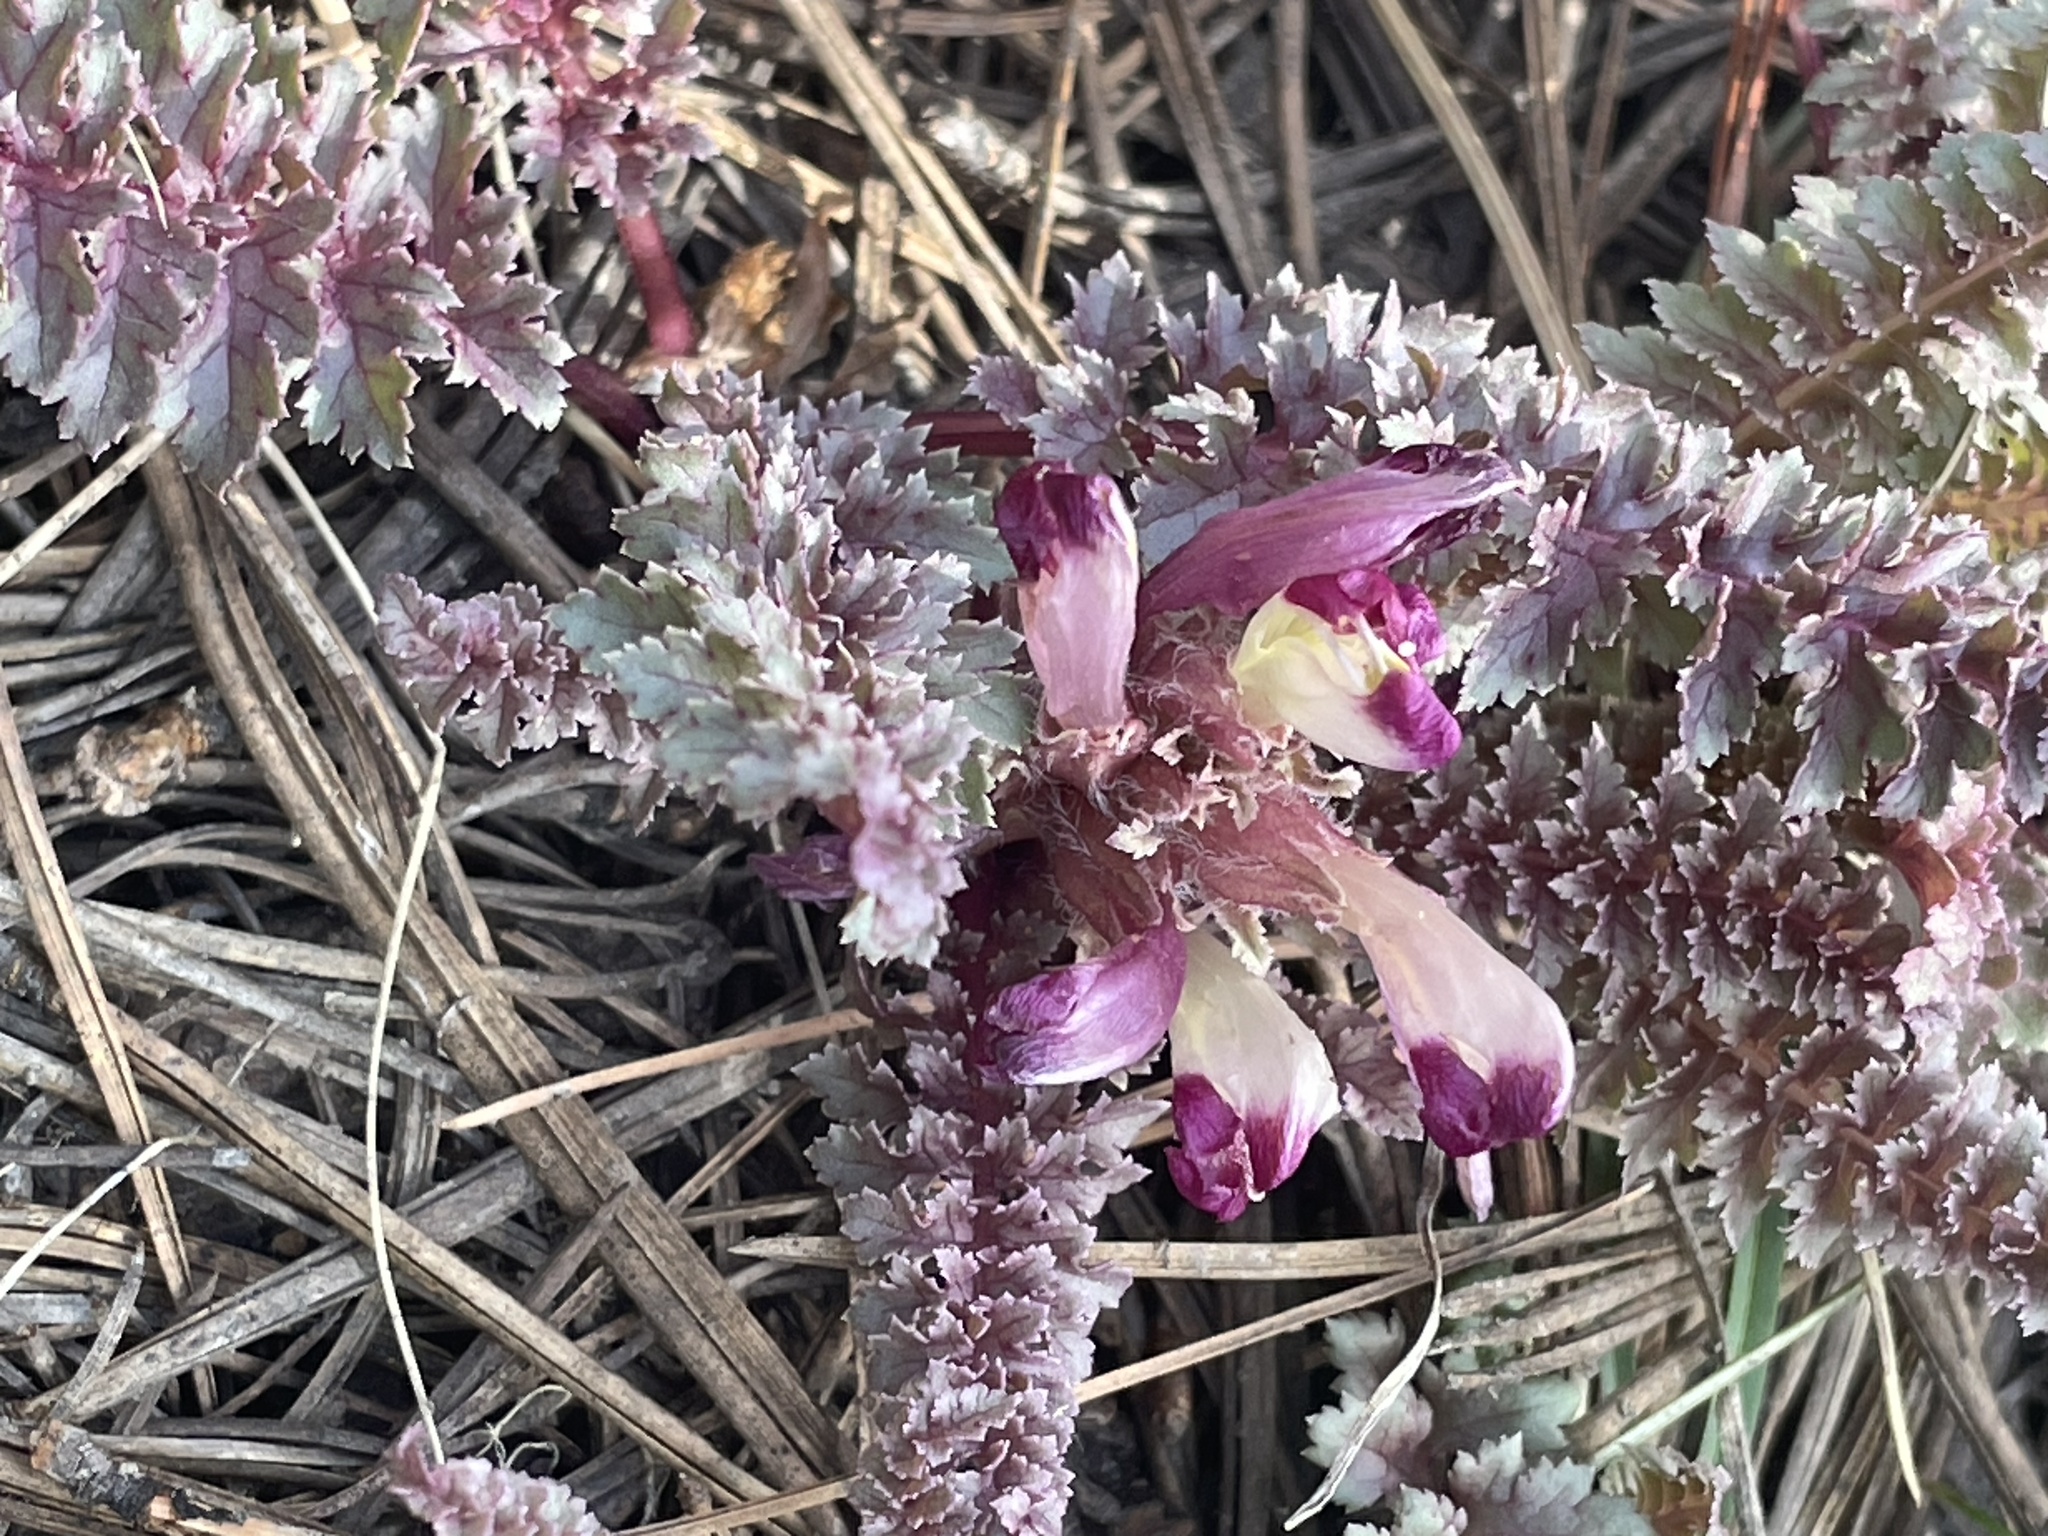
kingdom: Plantae
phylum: Tracheophyta
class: Magnoliopsida
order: Lamiales
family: Orobanchaceae
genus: Pedicularis
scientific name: Pedicularis centranthera
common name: Dwarf lousewort
